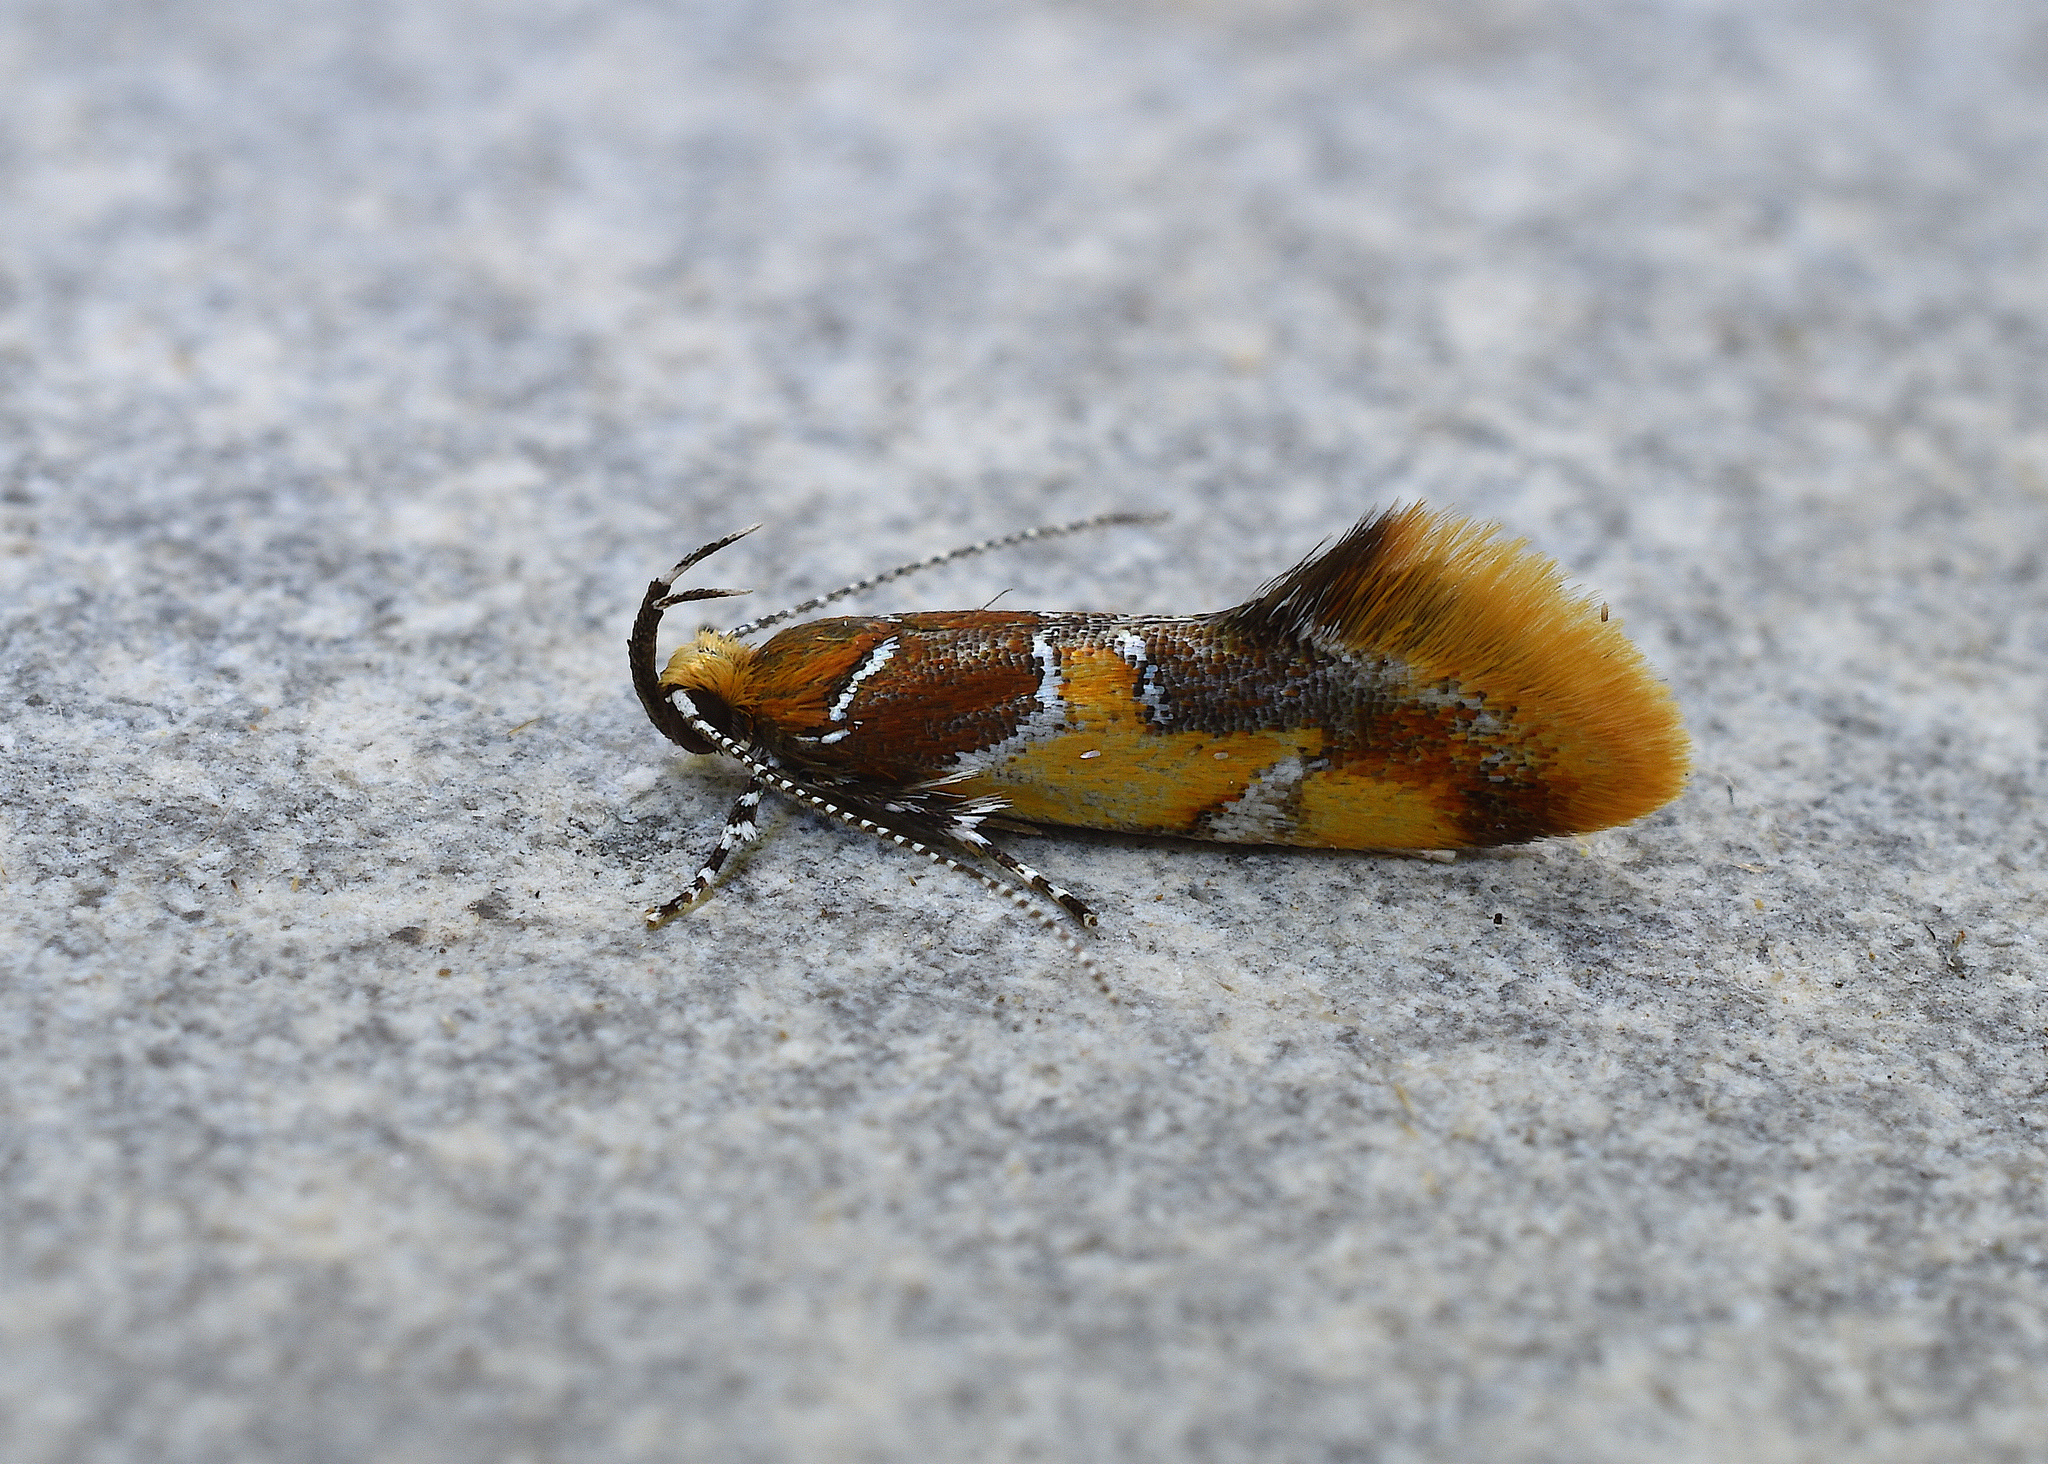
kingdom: Animalia
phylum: Arthropoda
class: Insecta
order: Lepidoptera
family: Oecophoridae
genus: Callima
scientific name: Callima argenticinctella
